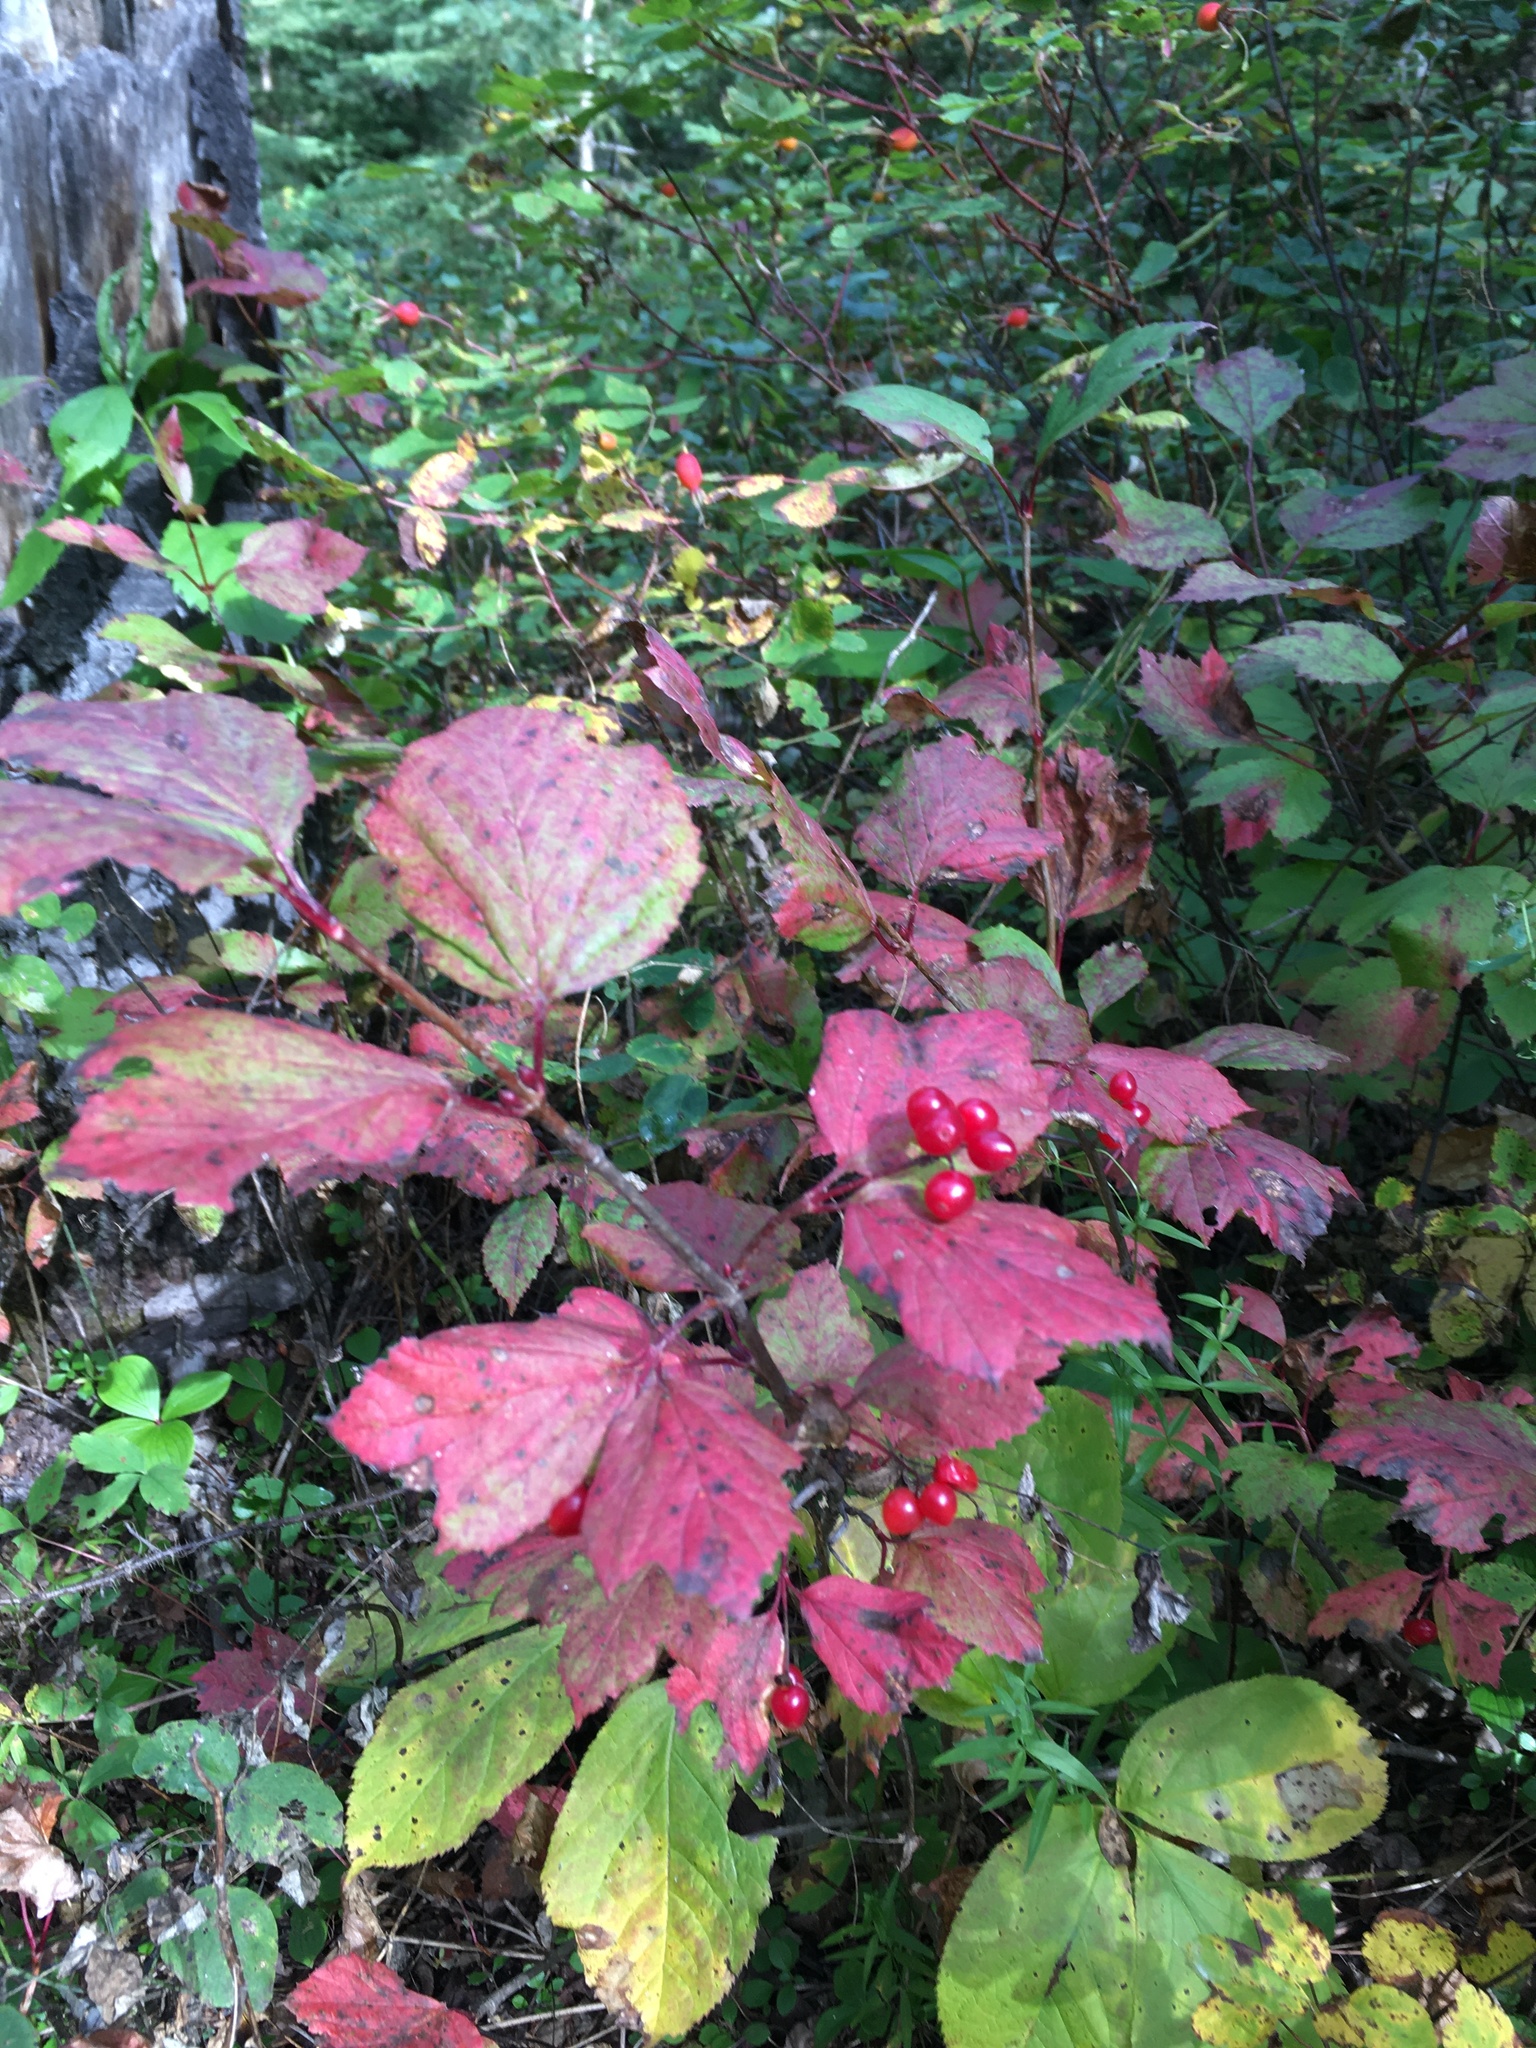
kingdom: Plantae
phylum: Tracheophyta
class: Magnoliopsida
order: Dipsacales
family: Viburnaceae
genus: Viburnum
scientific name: Viburnum edule
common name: Mooseberry
